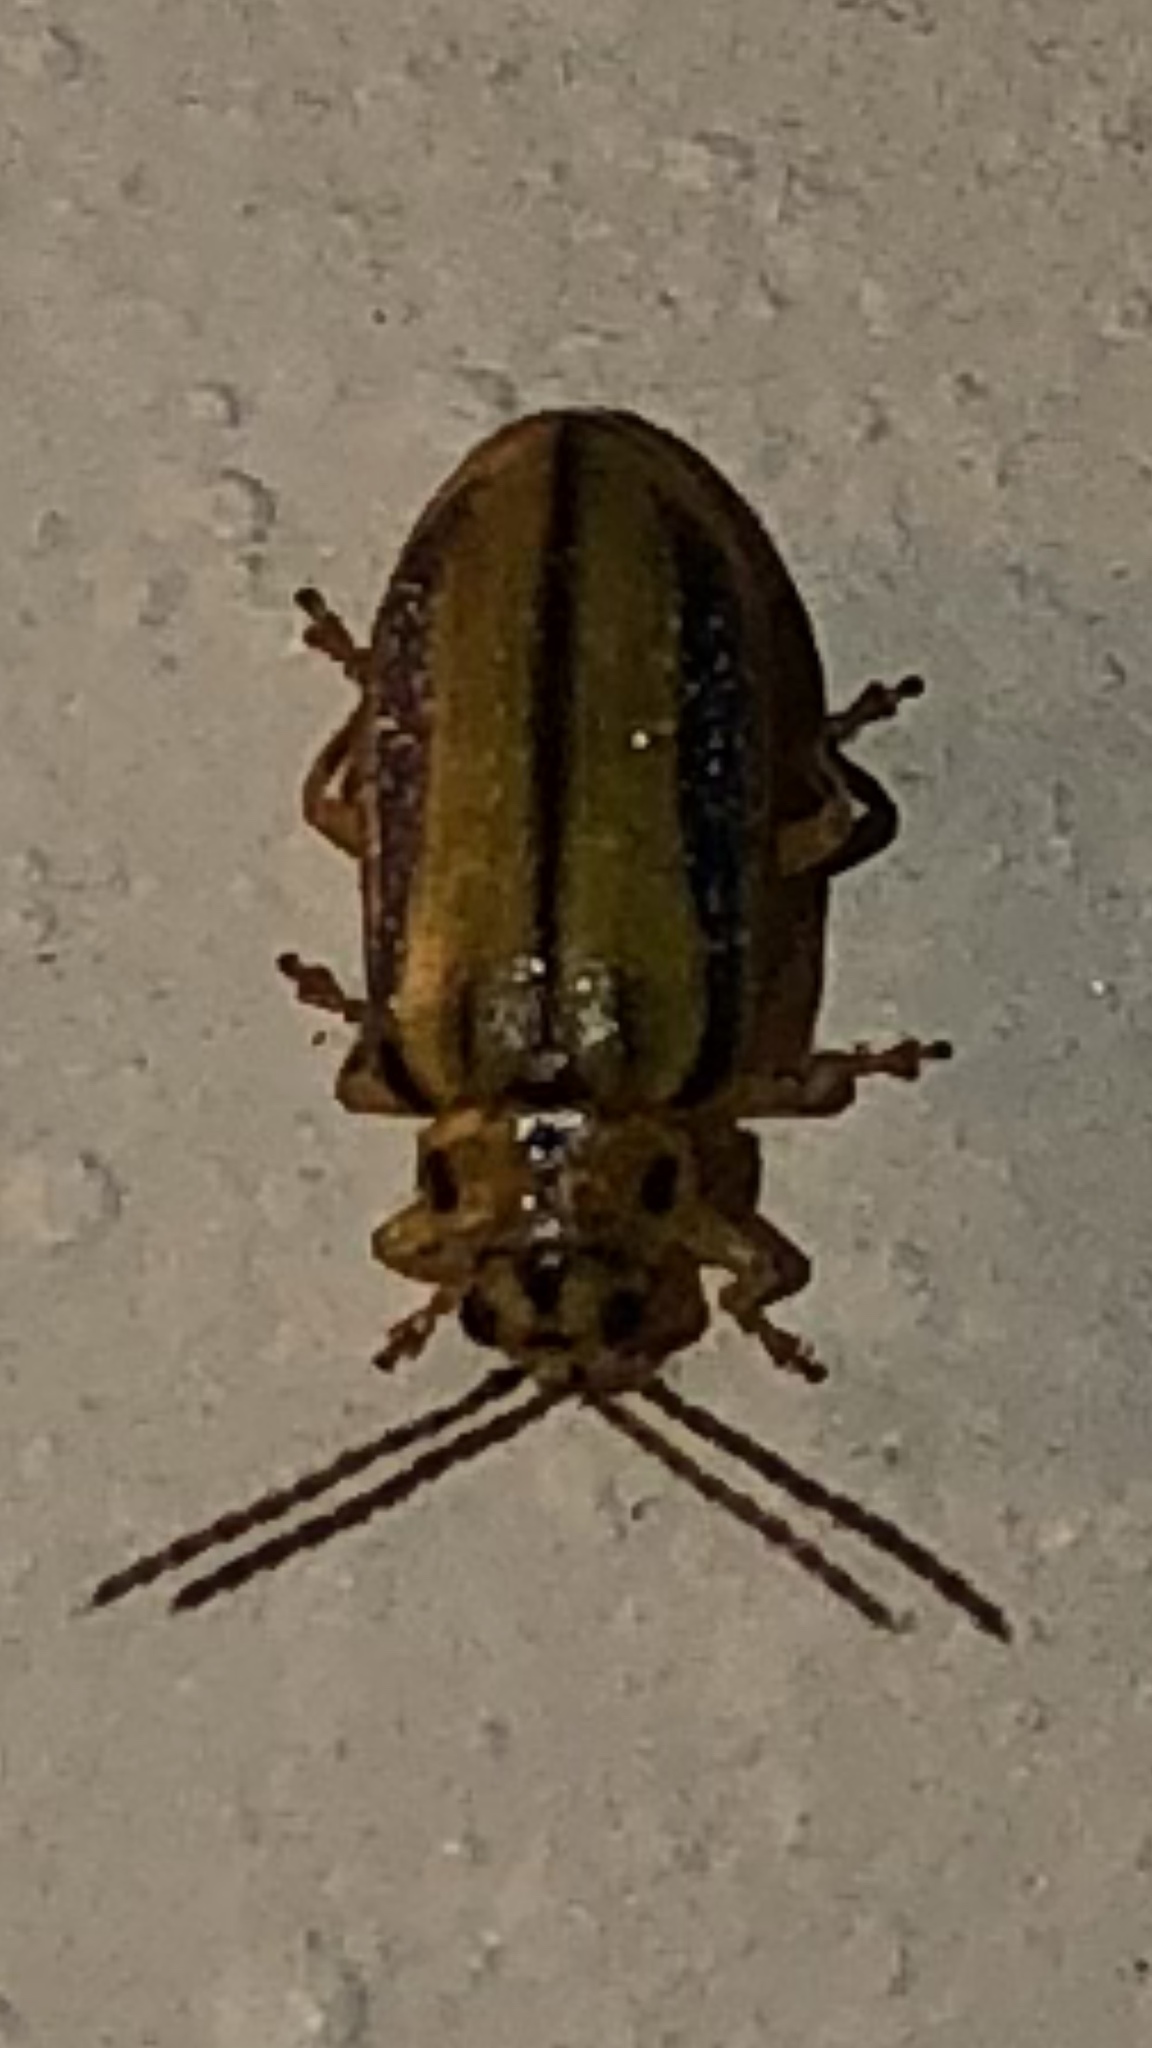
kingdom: Animalia
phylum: Arthropoda
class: Insecta
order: Coleoptera
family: Chrysomelidae
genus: Xanthogaleruca
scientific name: Xanthogaleruca luteola
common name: Elm leaf beetle
